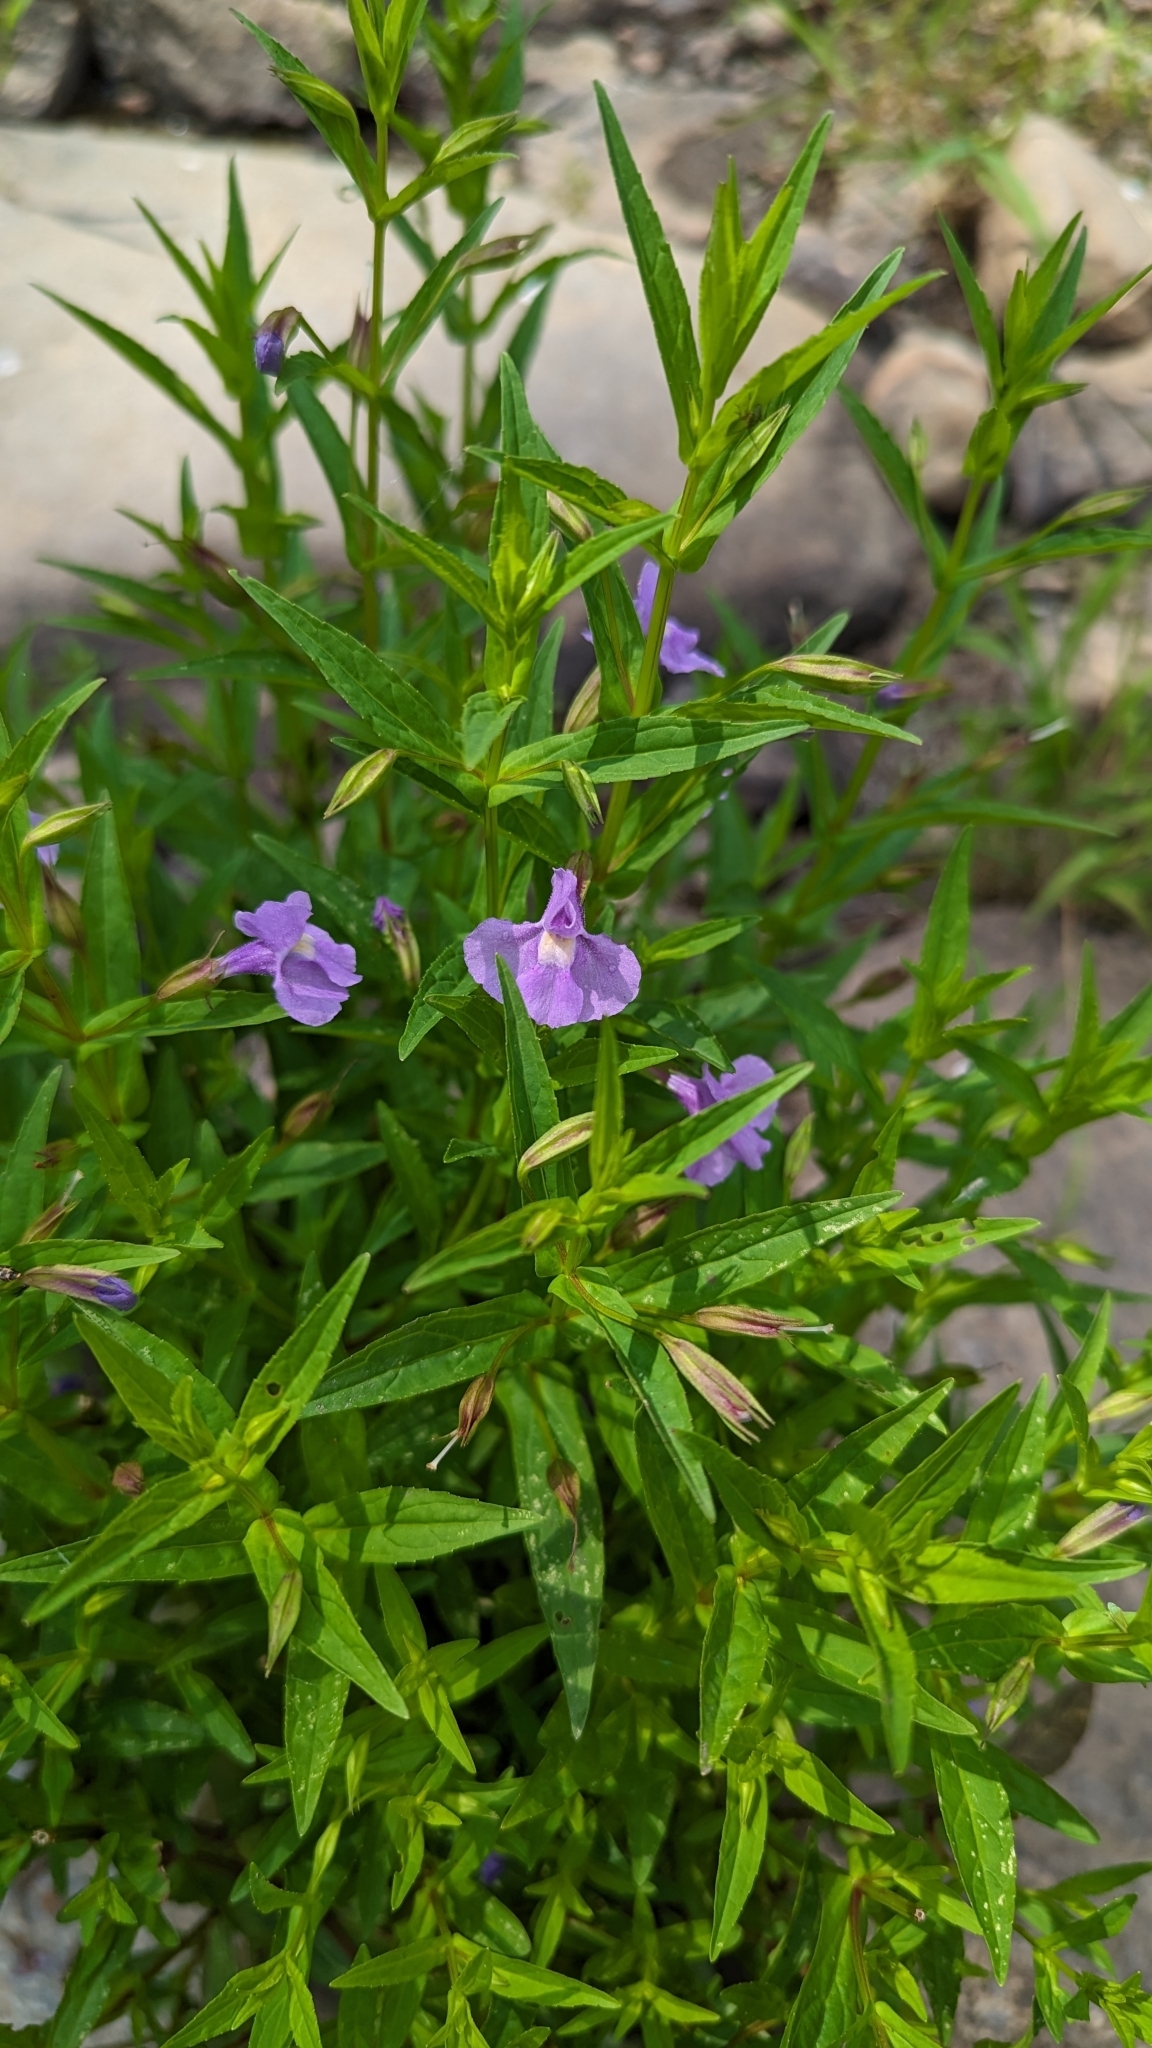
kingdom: Plantae
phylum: Tracheophyta
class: Magnoliopsida
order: Lamiales
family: Phrymaceae
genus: Mimulus
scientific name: Mimulus ringens
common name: Allegheny monkeyflower
